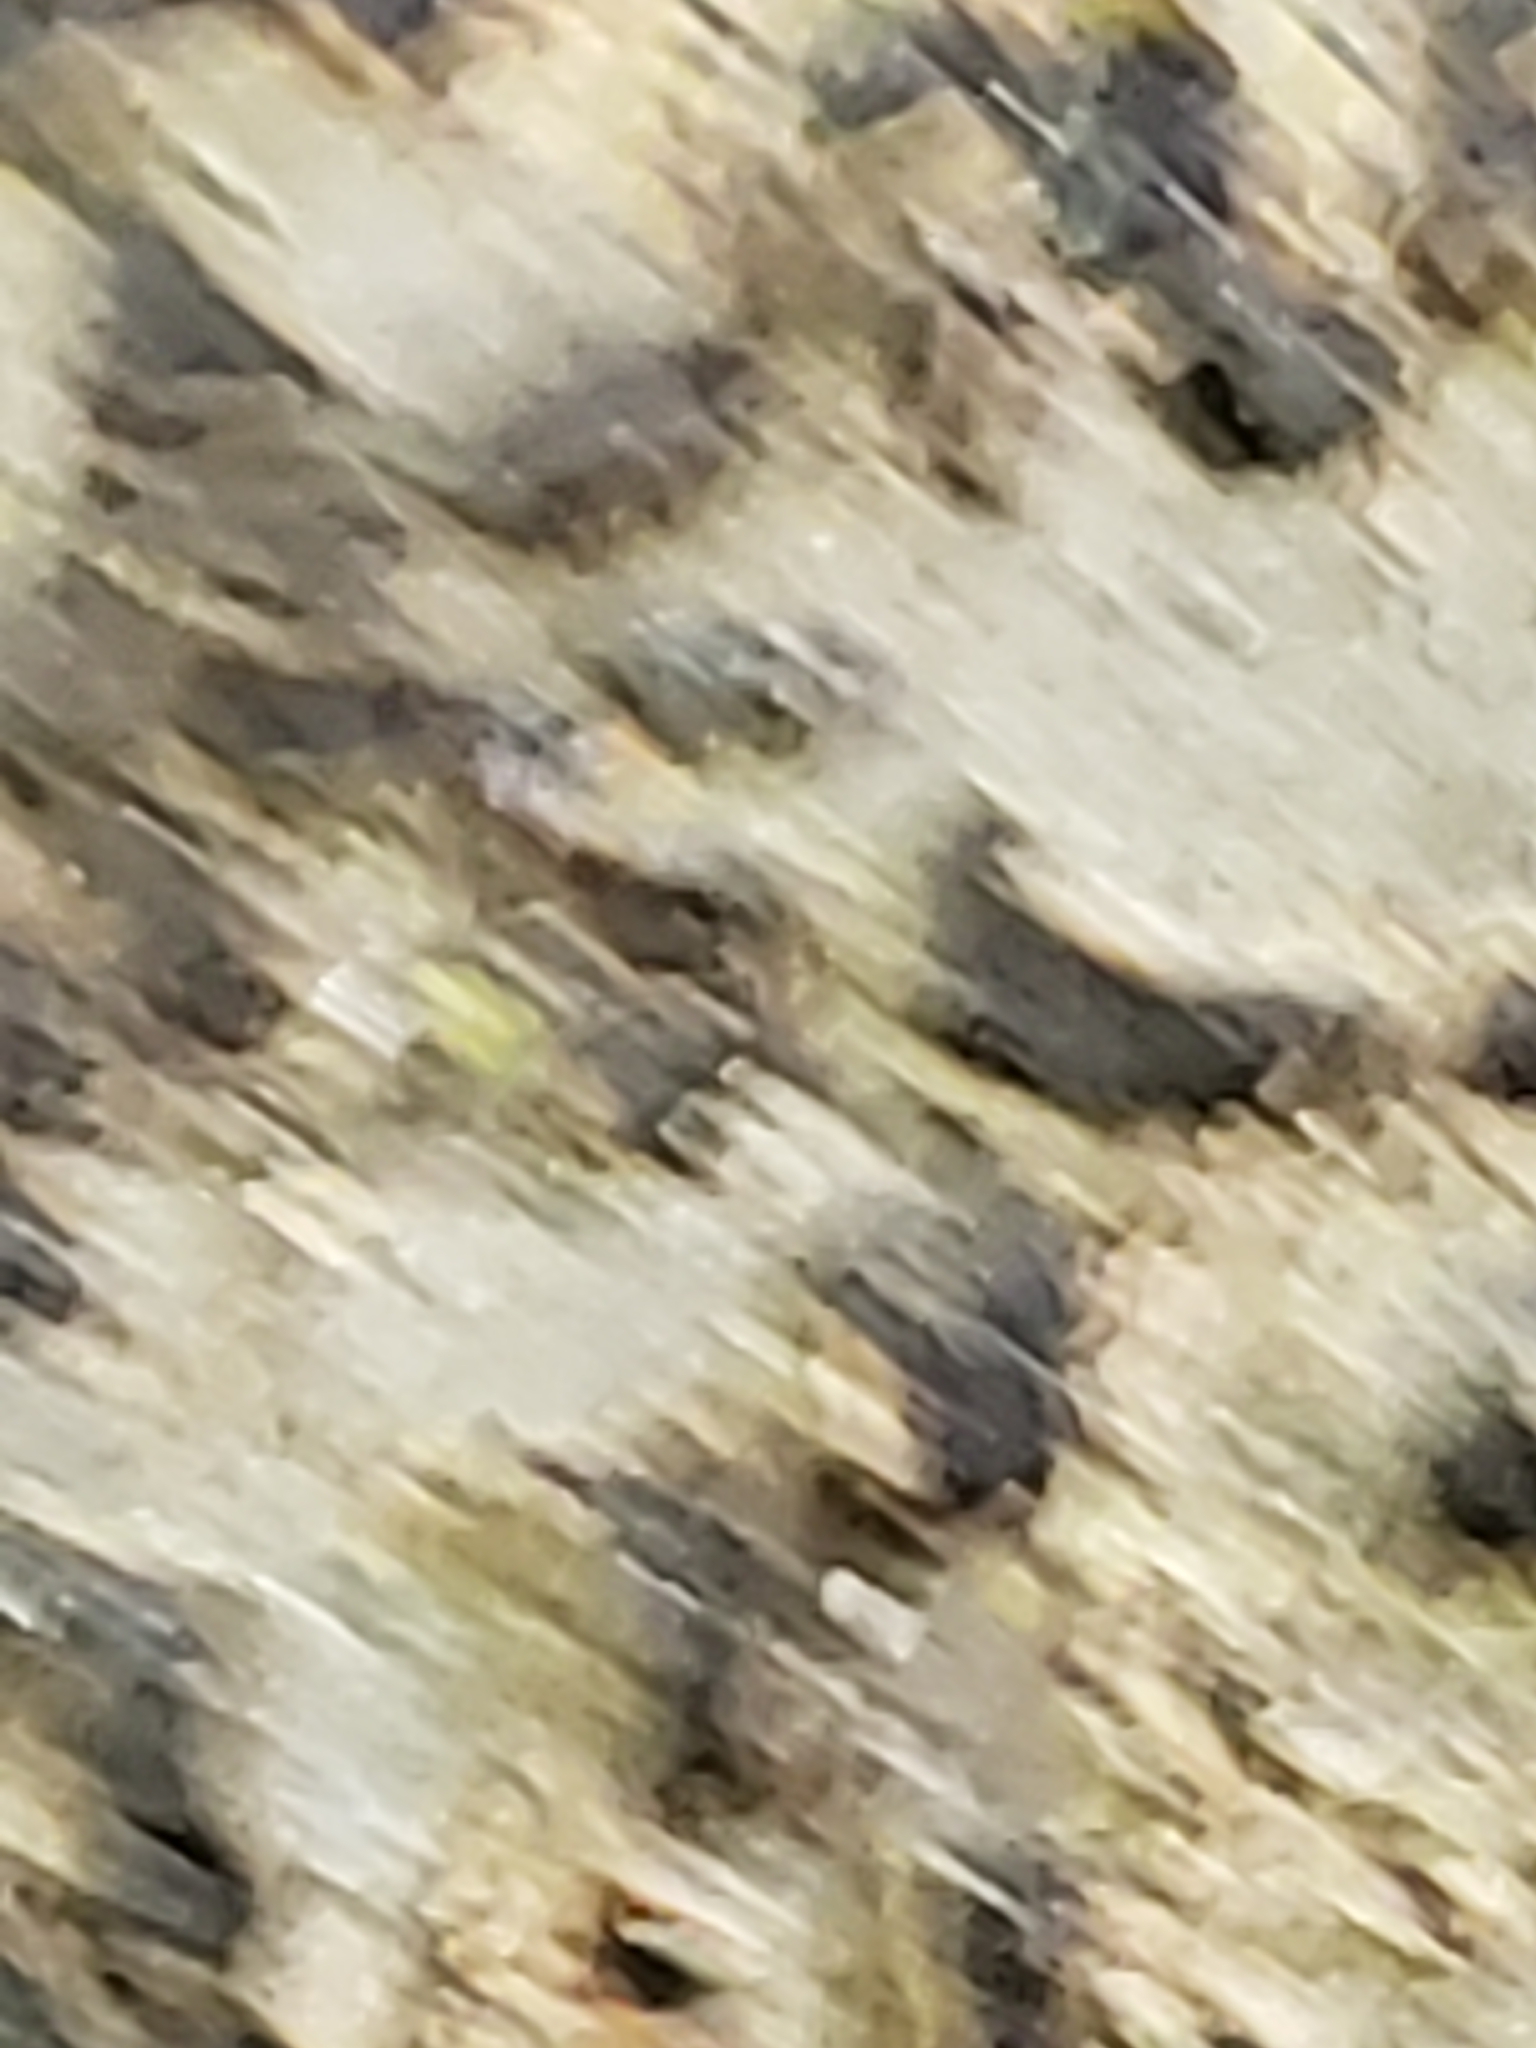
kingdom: Animalia
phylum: Arthropoda
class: Insecta
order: Psocodea
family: Amphientomidae
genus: Stimulopalpus
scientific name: Stimulopalpus japonicus
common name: Tropical bark louse
